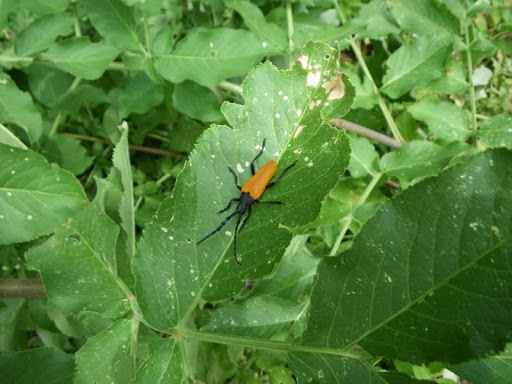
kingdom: Animalia
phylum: Arthropoda
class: Insecta
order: Coleoptera
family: Cerambycidae
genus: Desmocerus
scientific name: Desmocerus aureipennis
